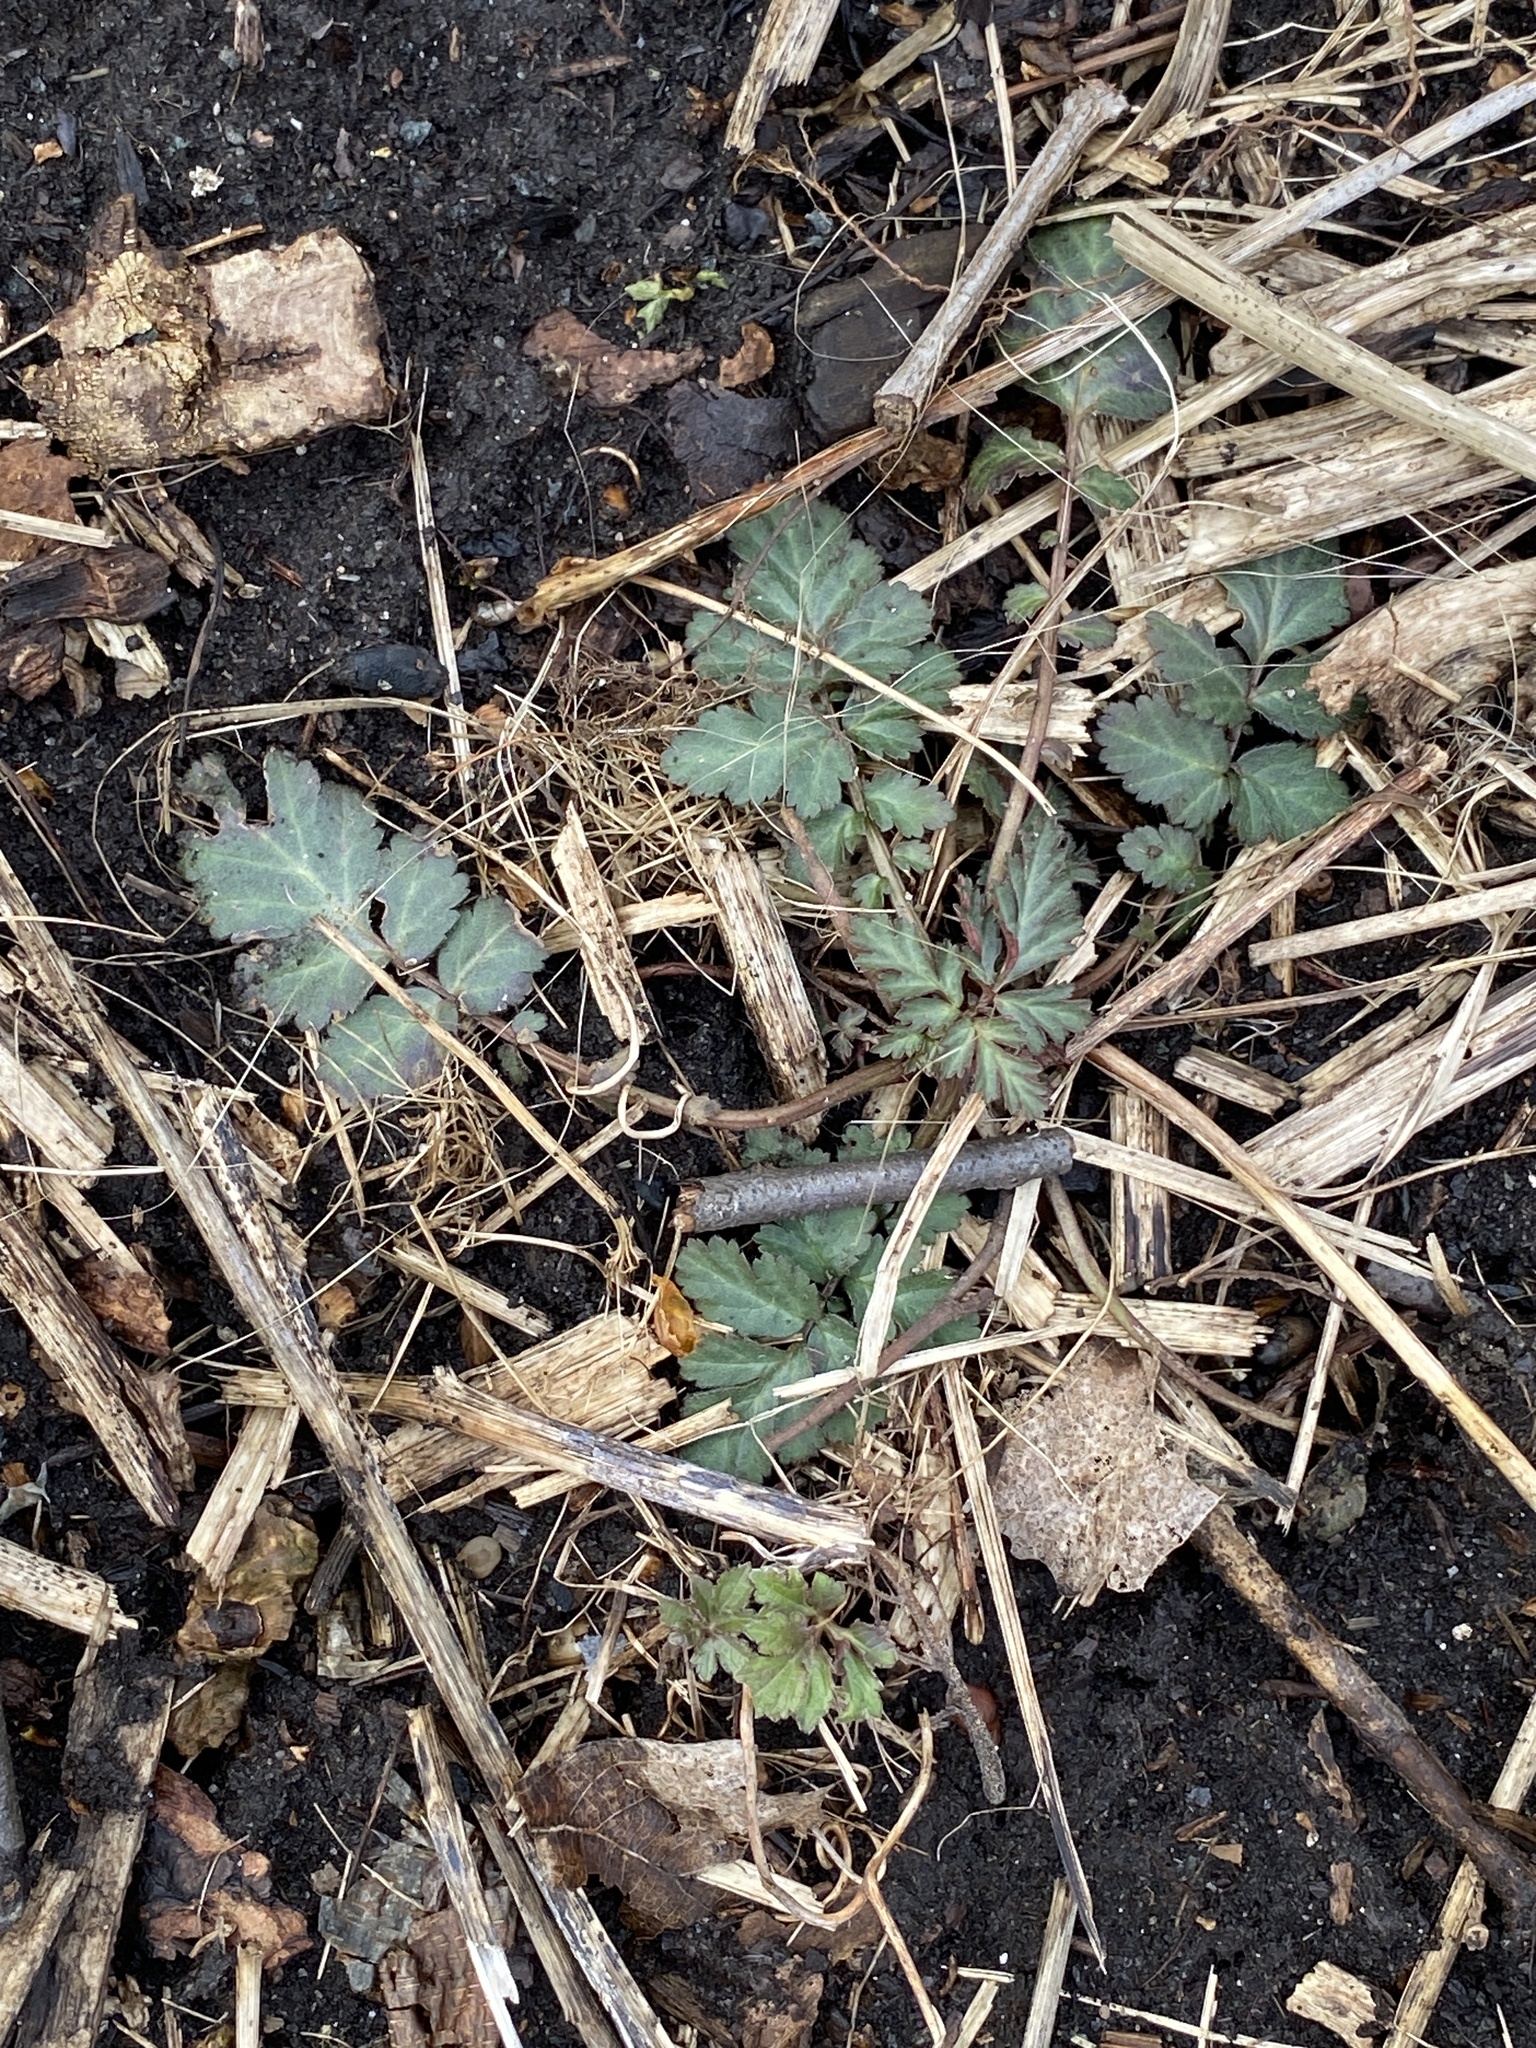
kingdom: Plantae
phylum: Tracheophyta
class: Magnoliopsida
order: Rosales
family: Rosaceae
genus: Geum
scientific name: Geum canadense
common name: White avens
